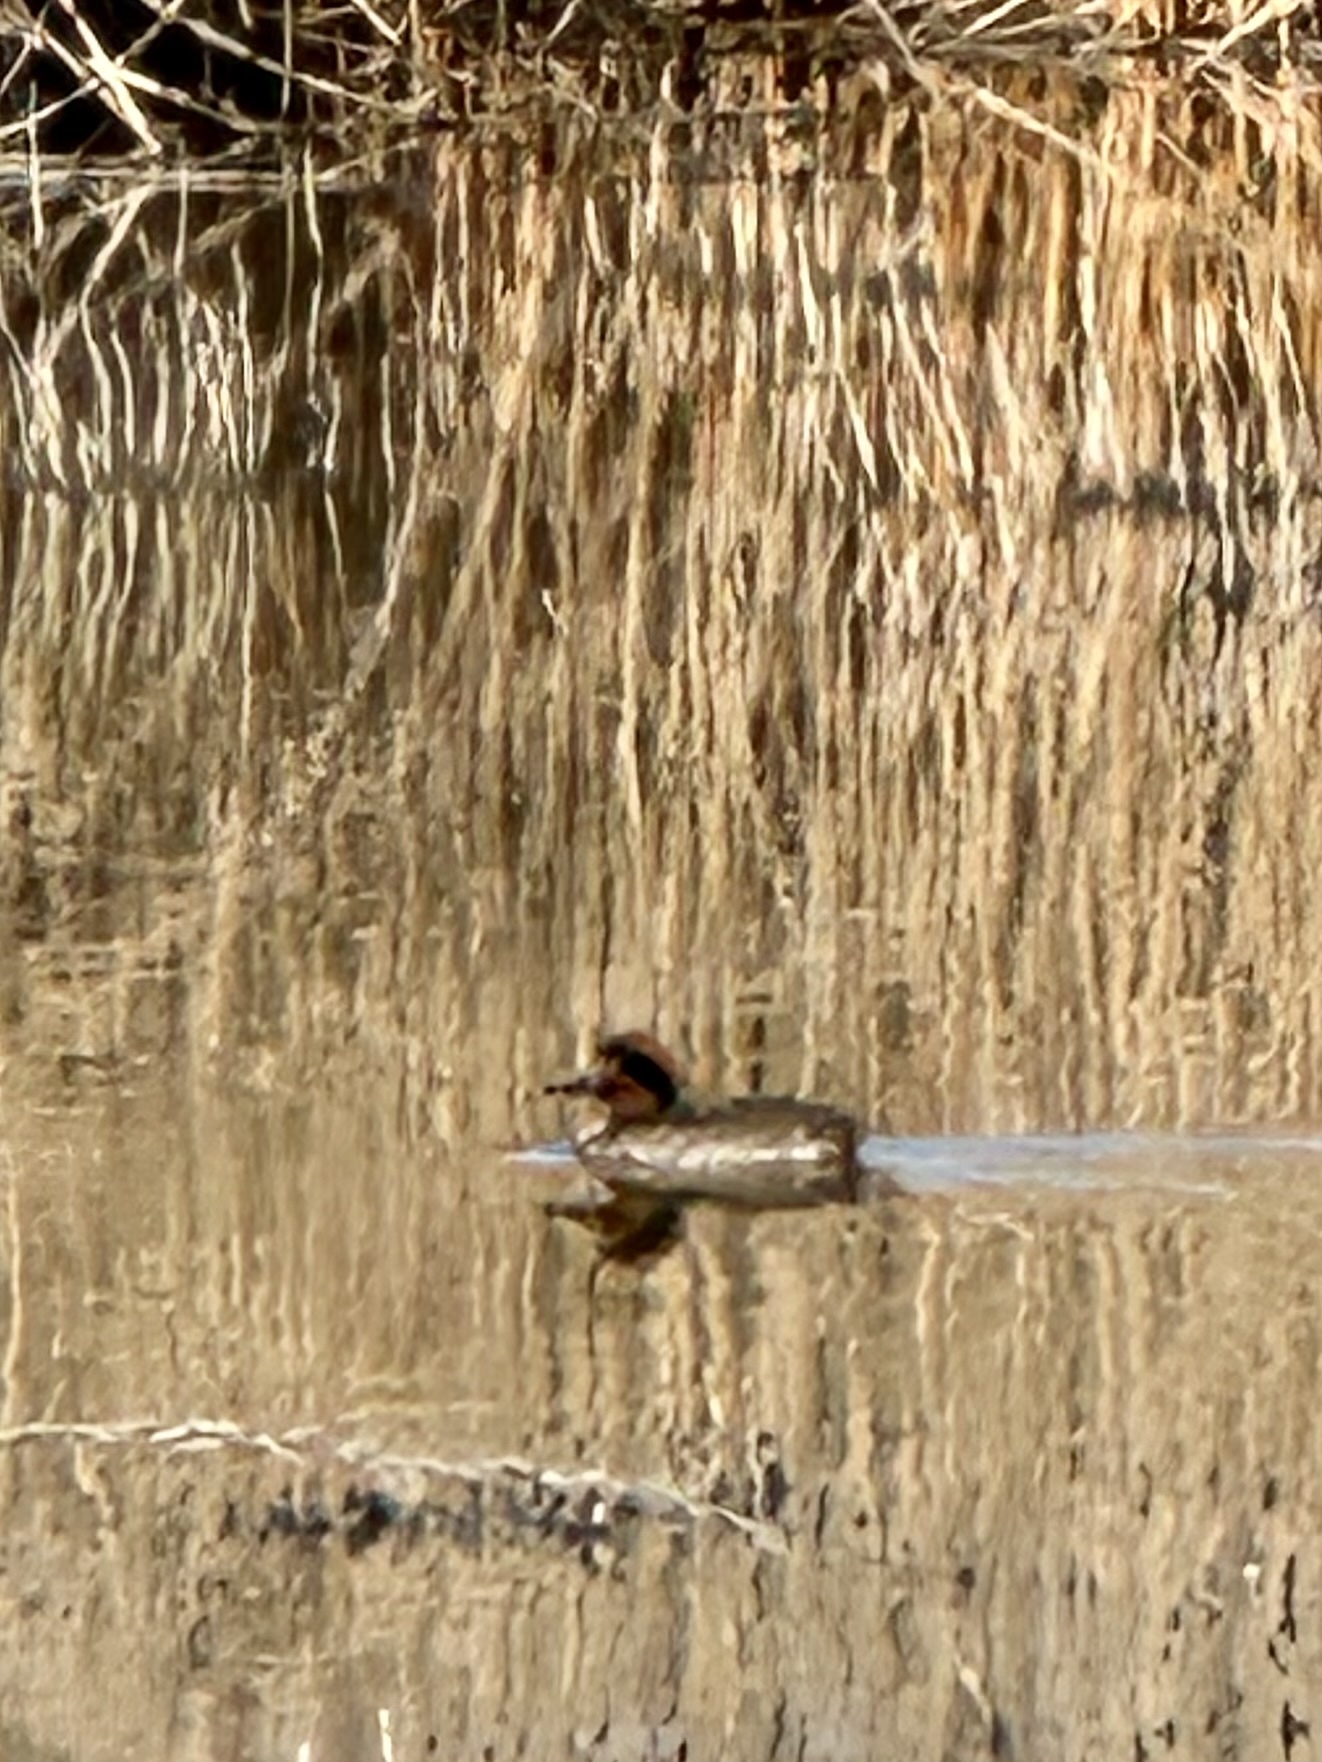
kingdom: Animalia
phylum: Chordata
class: Aves
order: Anseriformes
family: Anatidae
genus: Anas
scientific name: Anas crecca
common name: Eurasian teal
